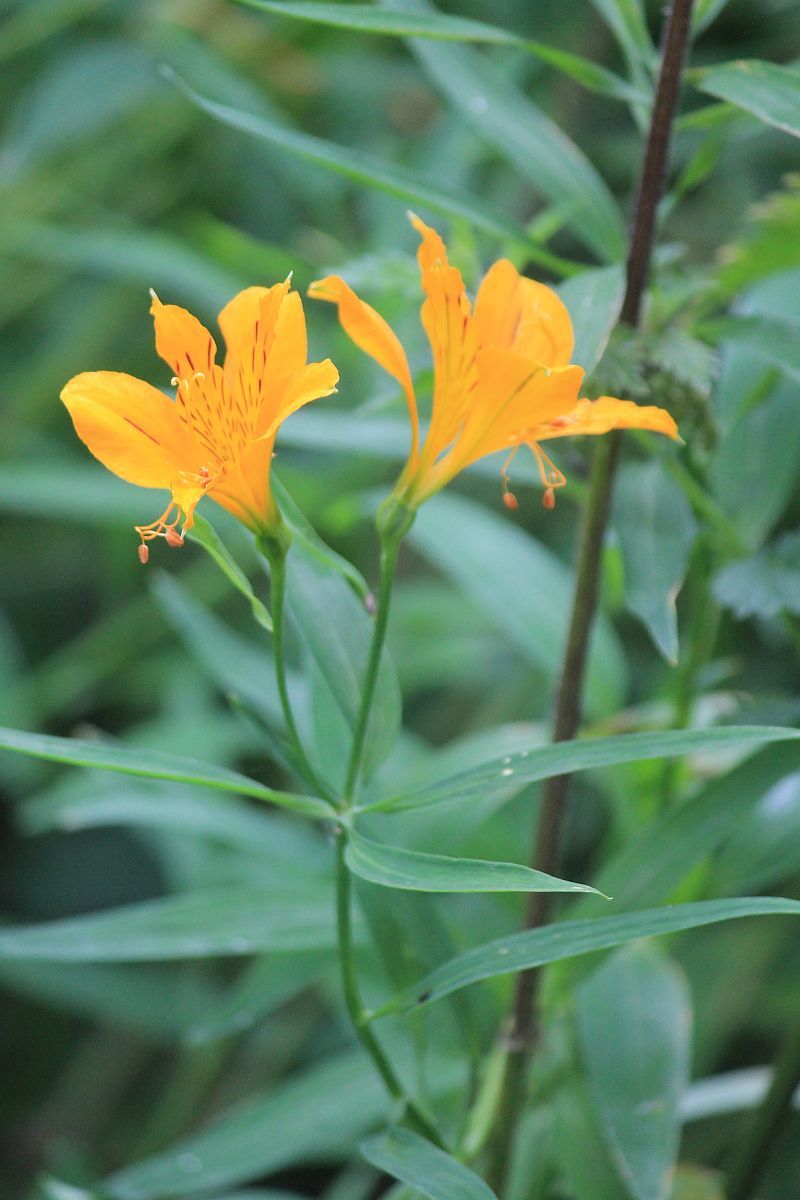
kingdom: Plantae
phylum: Tracheophyta
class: Liliopsida
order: Liliales
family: Alstroemeriaceae
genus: Alstroemeria
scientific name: Alstroemeria aurea
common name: Peruvian lily
